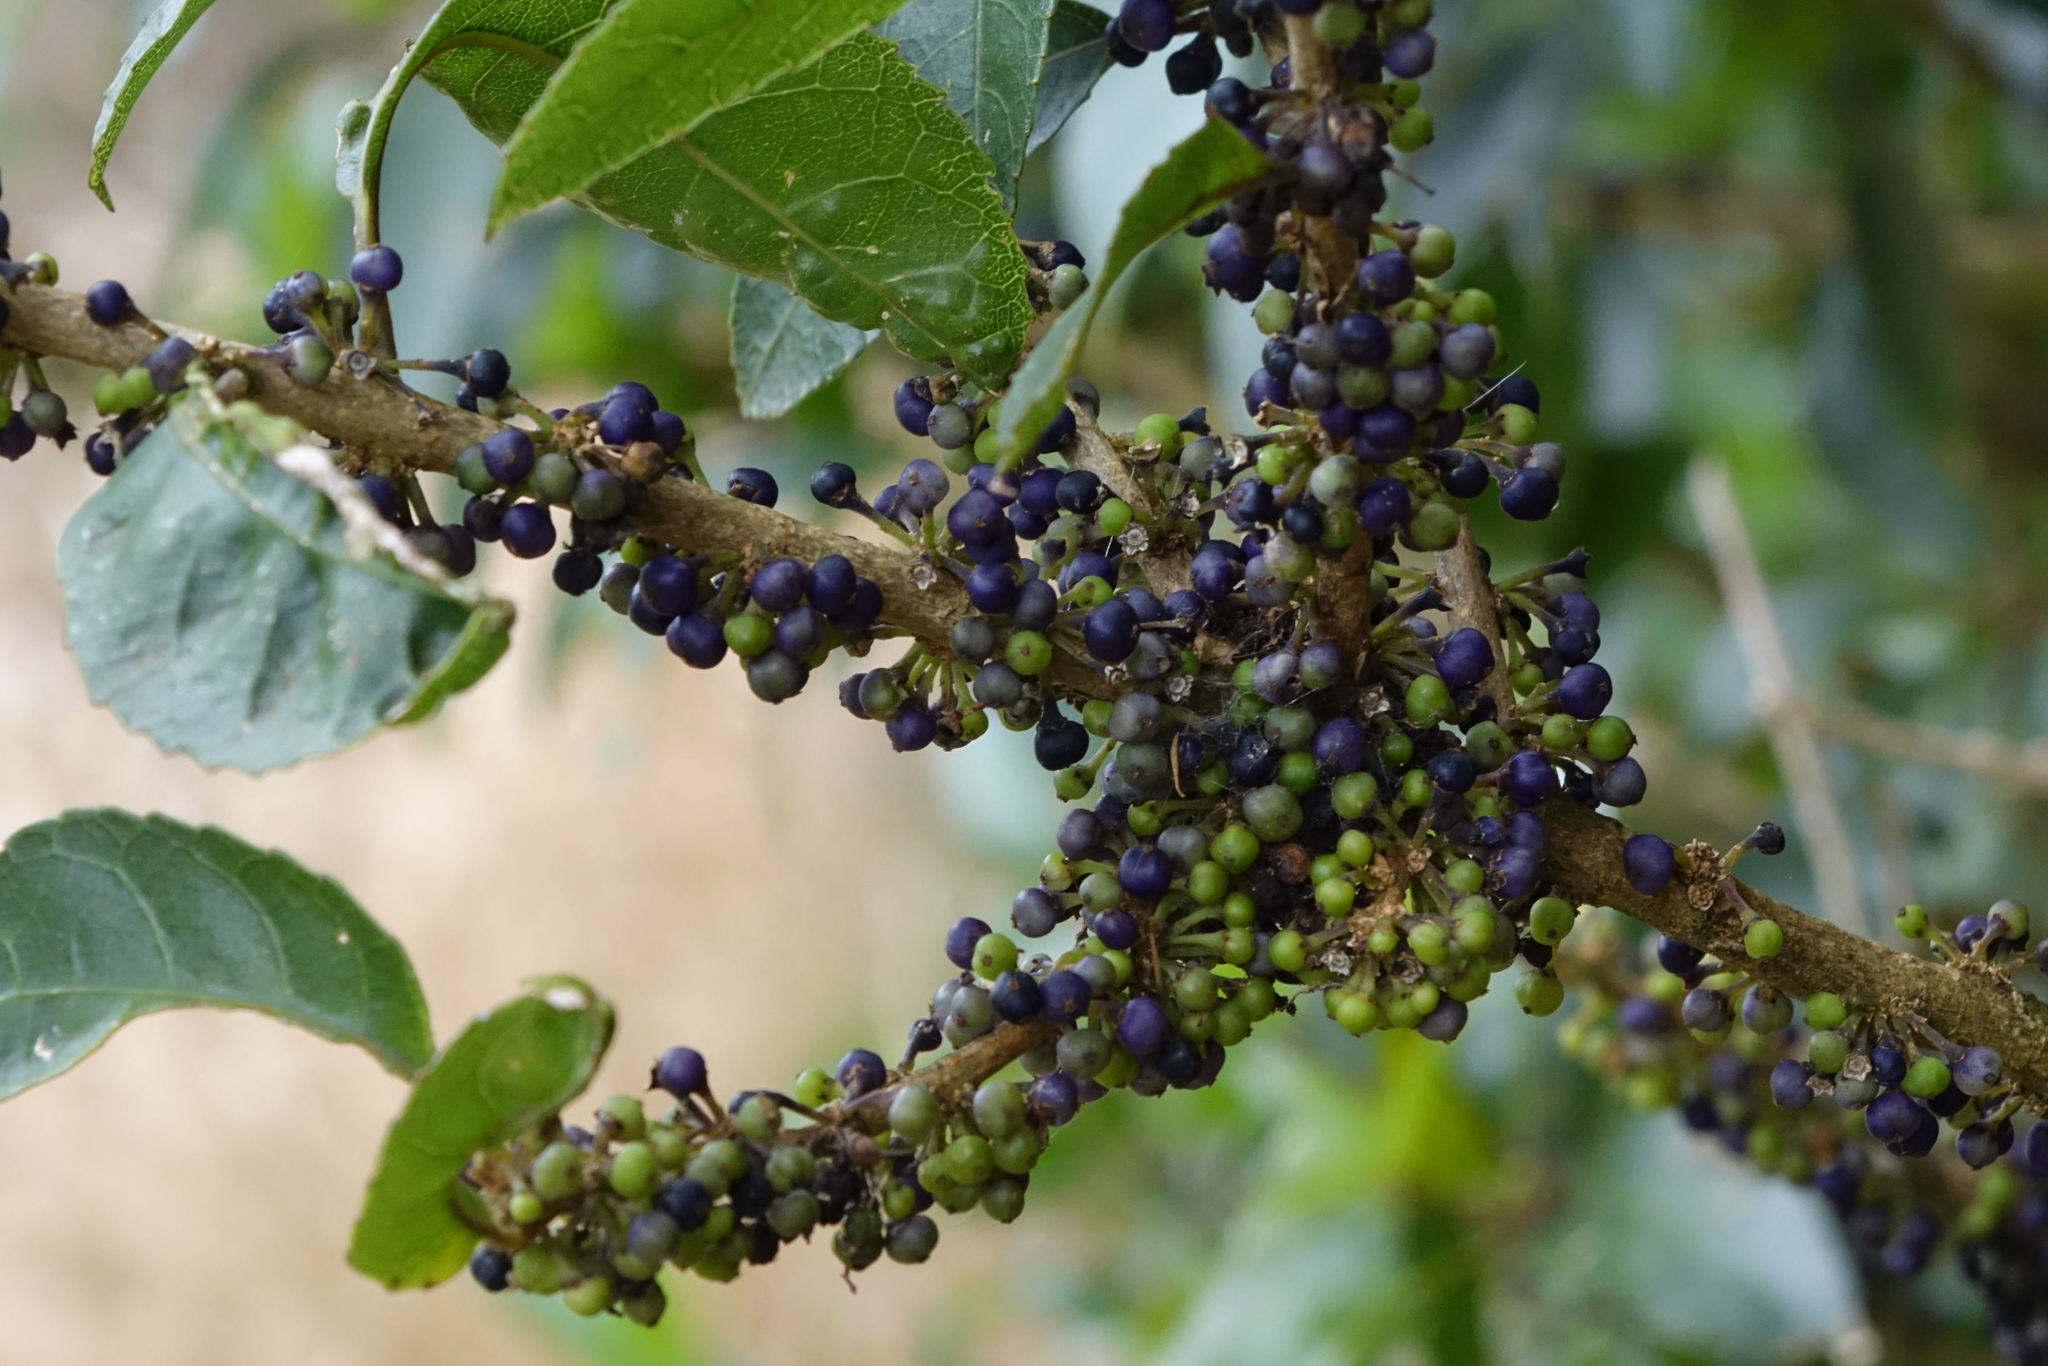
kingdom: Plantae
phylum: Tracheophyta
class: Magnoliopsida
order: Malpighiales
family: Violaceae
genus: Melicytus
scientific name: Melicytus ramiflorus
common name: Mahoe
